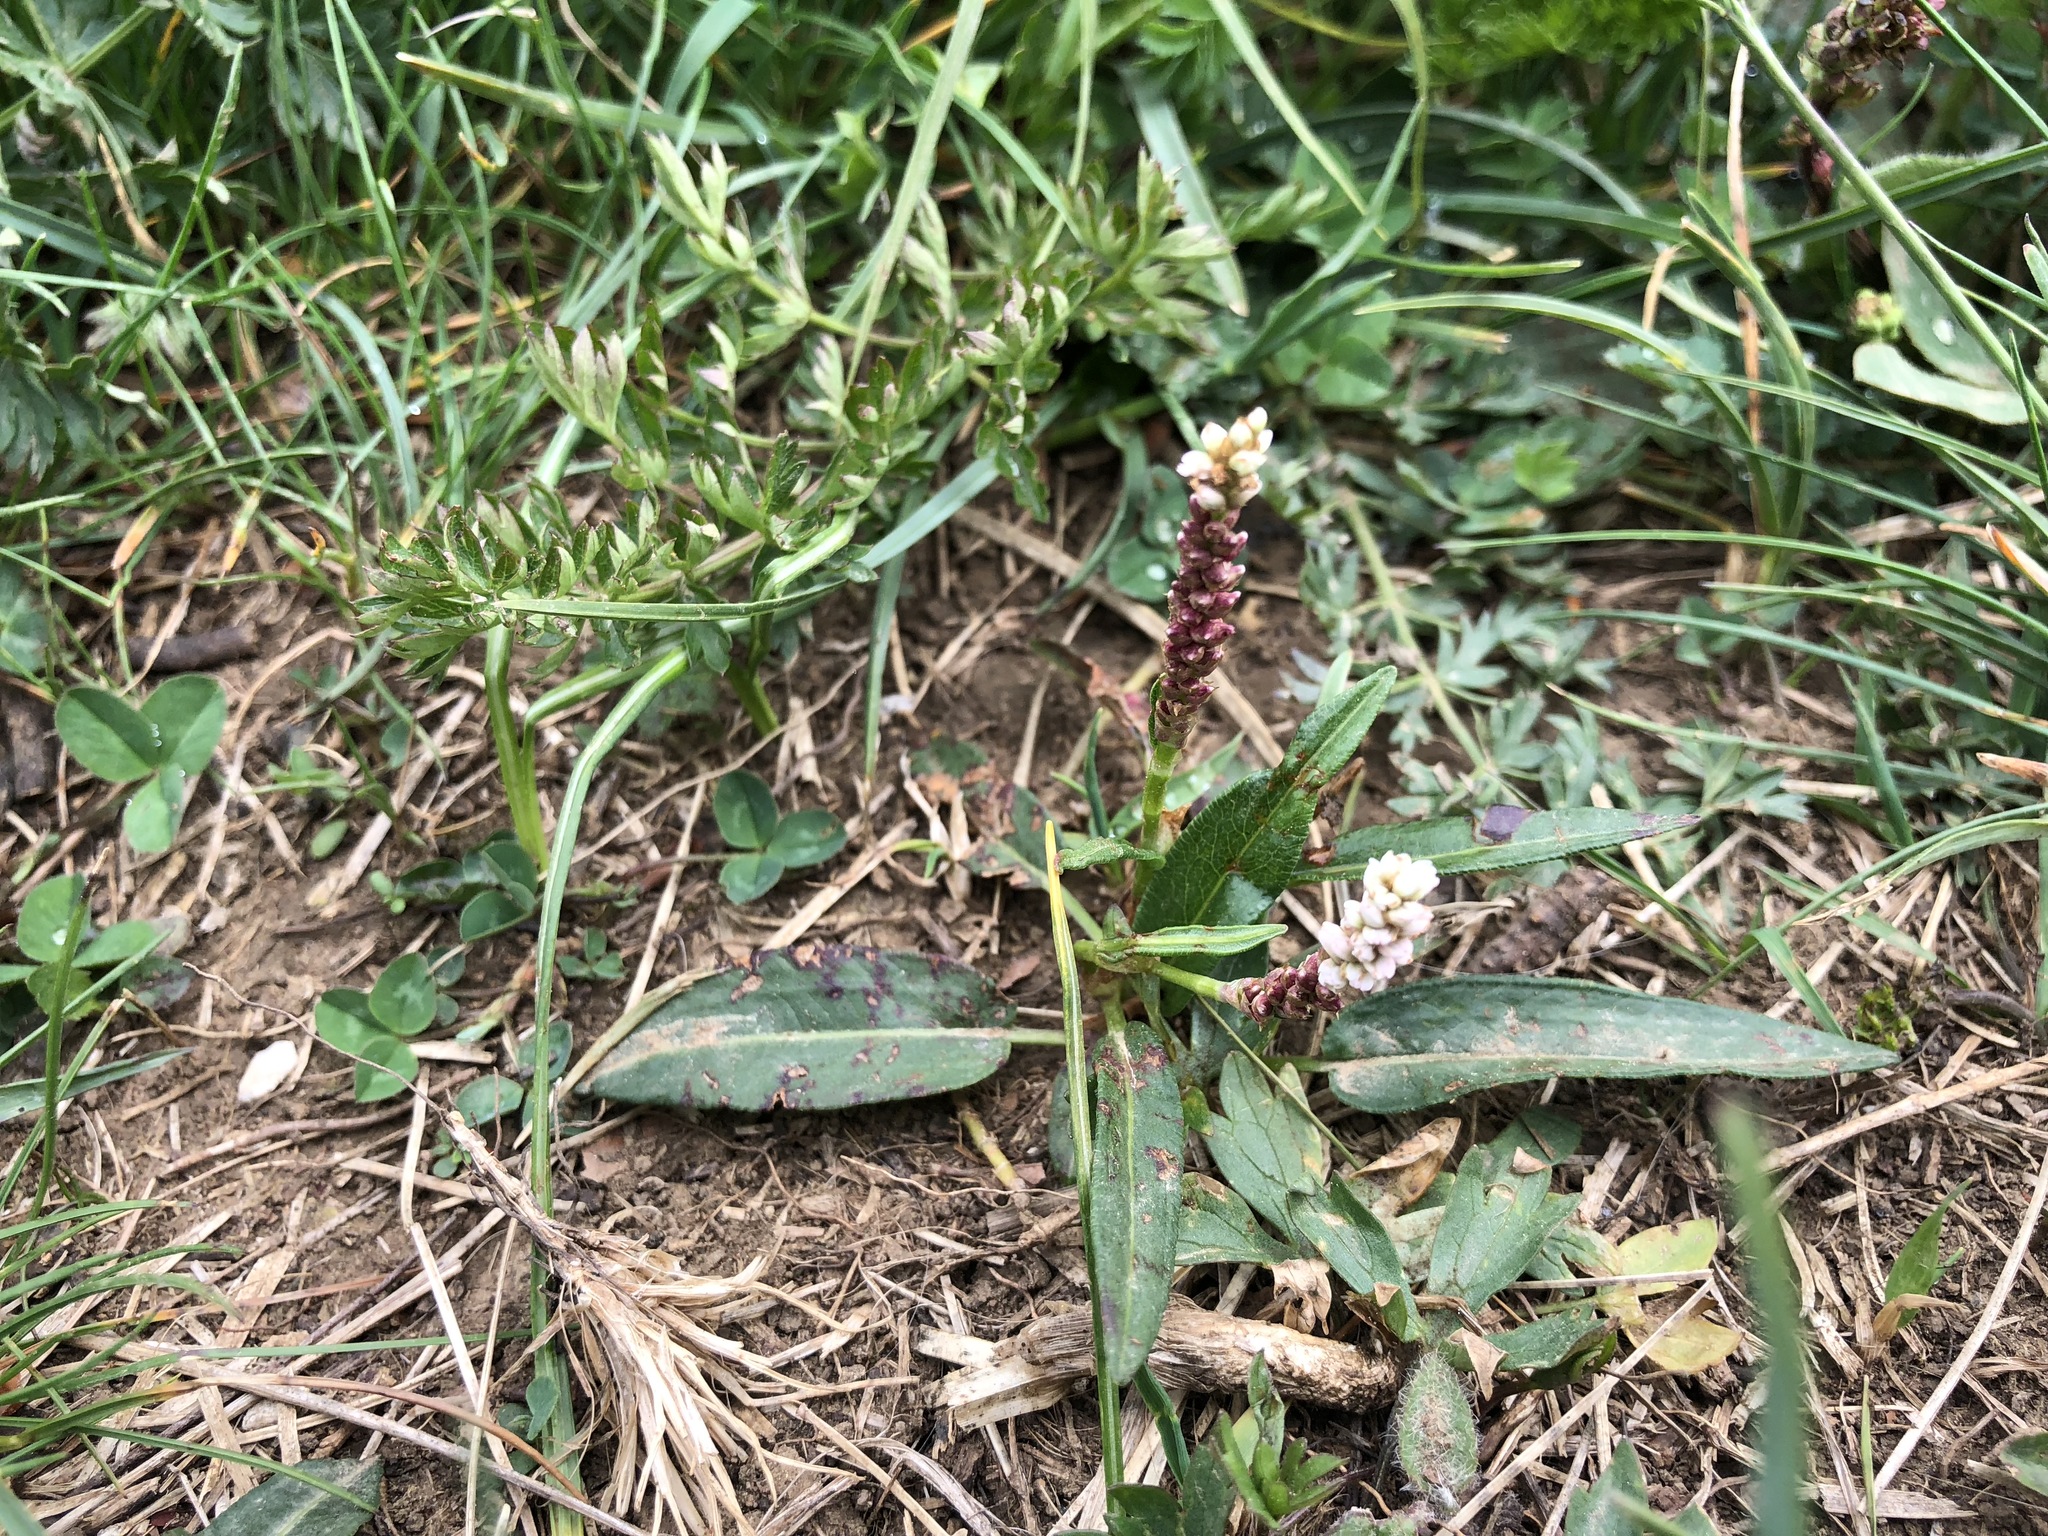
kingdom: Plantae
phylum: Tracheophyta
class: Magnoliopsida
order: Caryophyllales
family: Polygonaceae
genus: Bistorta
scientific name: Bistorta vivipara
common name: Alpine bistort
